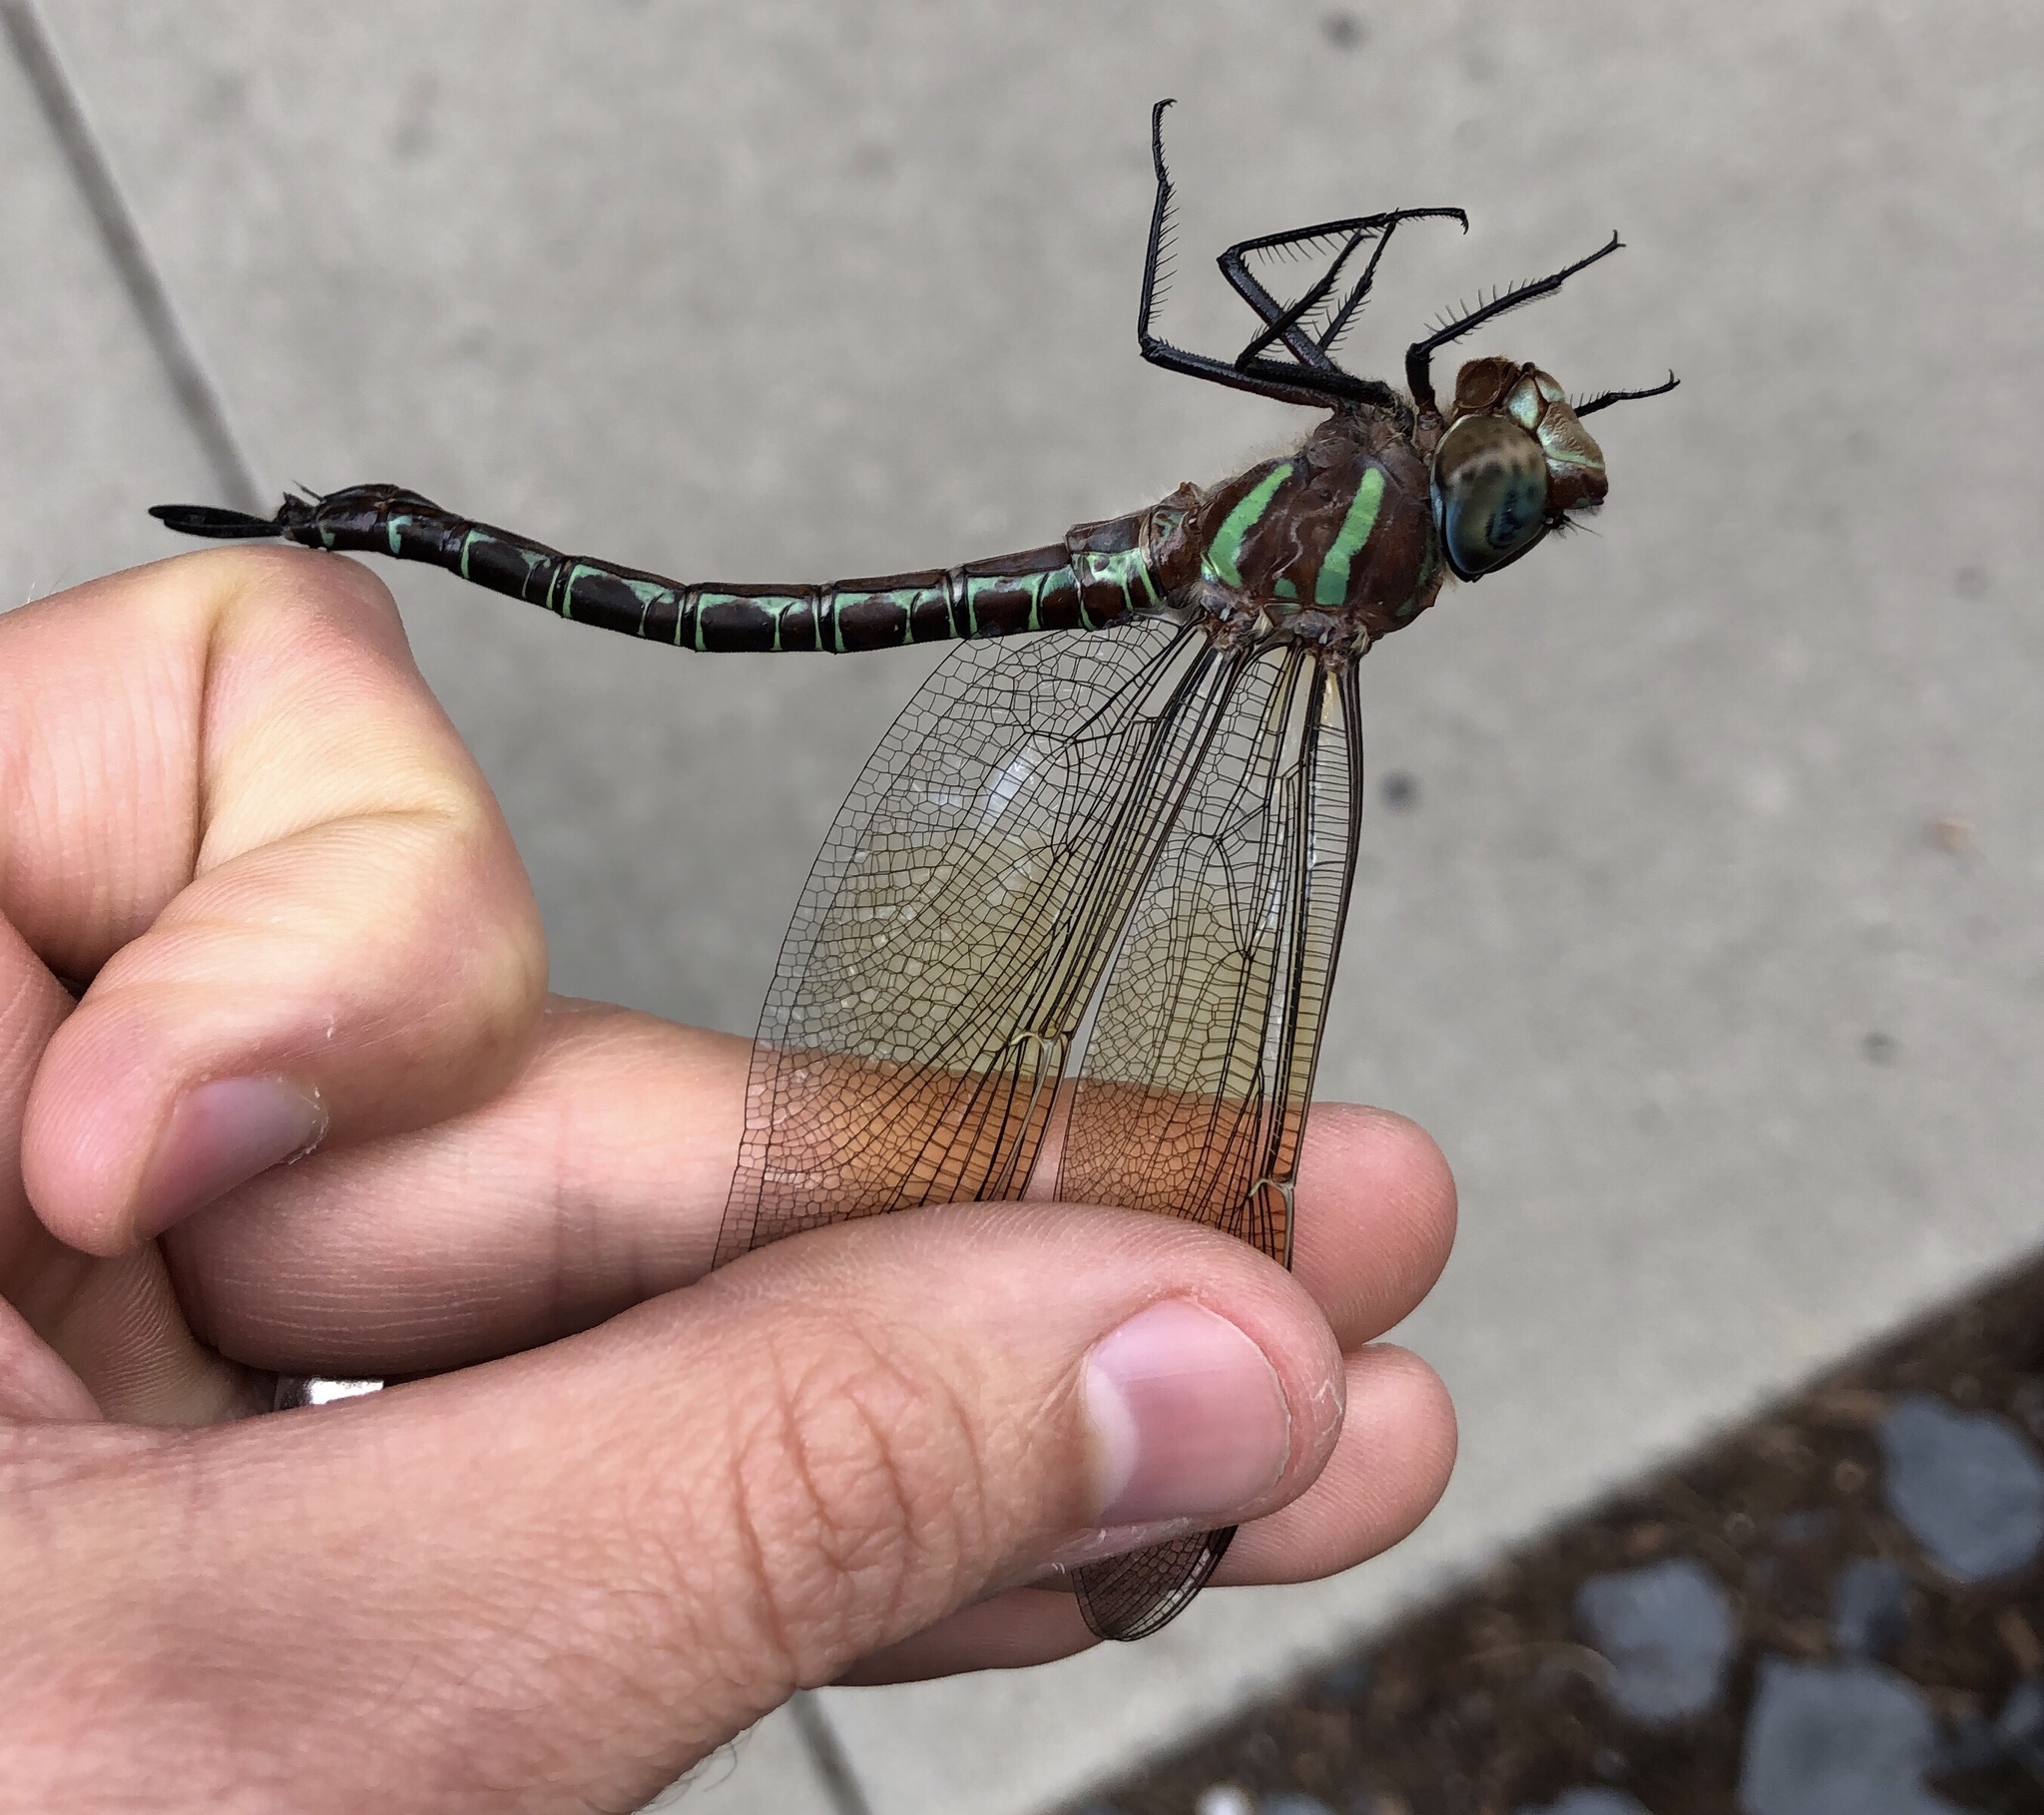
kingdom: Animalia
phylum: Arthropoda
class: Insecta
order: Odonata
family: Aeshnidae
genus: Epiaeschna
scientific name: Epiaeschna heros
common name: Swamp darner
